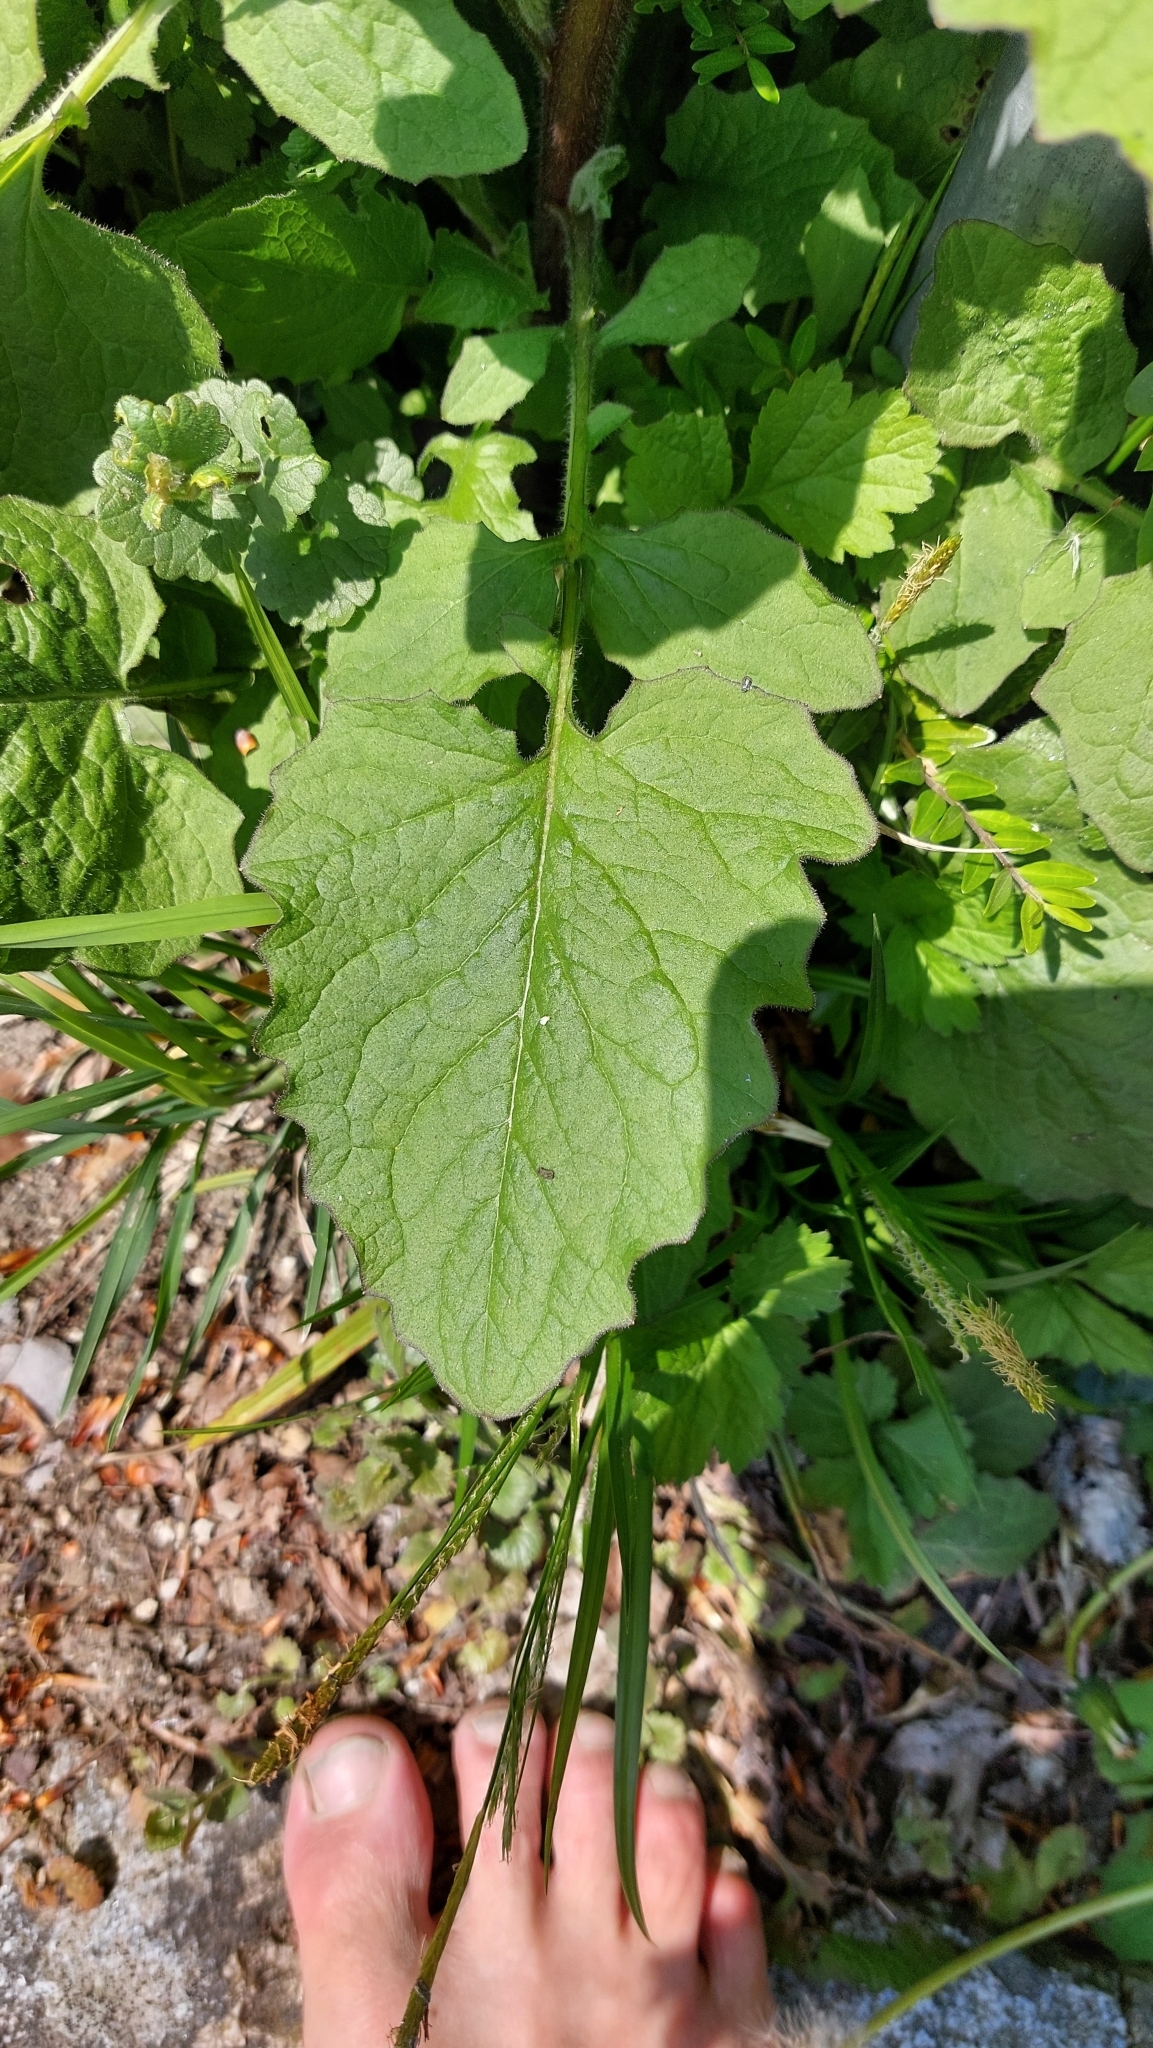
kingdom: Plantae
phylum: Tracheophyta
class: Magnoliopsida
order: Asterales
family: Asteraceae
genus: Lapsana
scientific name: Lapsana communis
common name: Nipplewort
